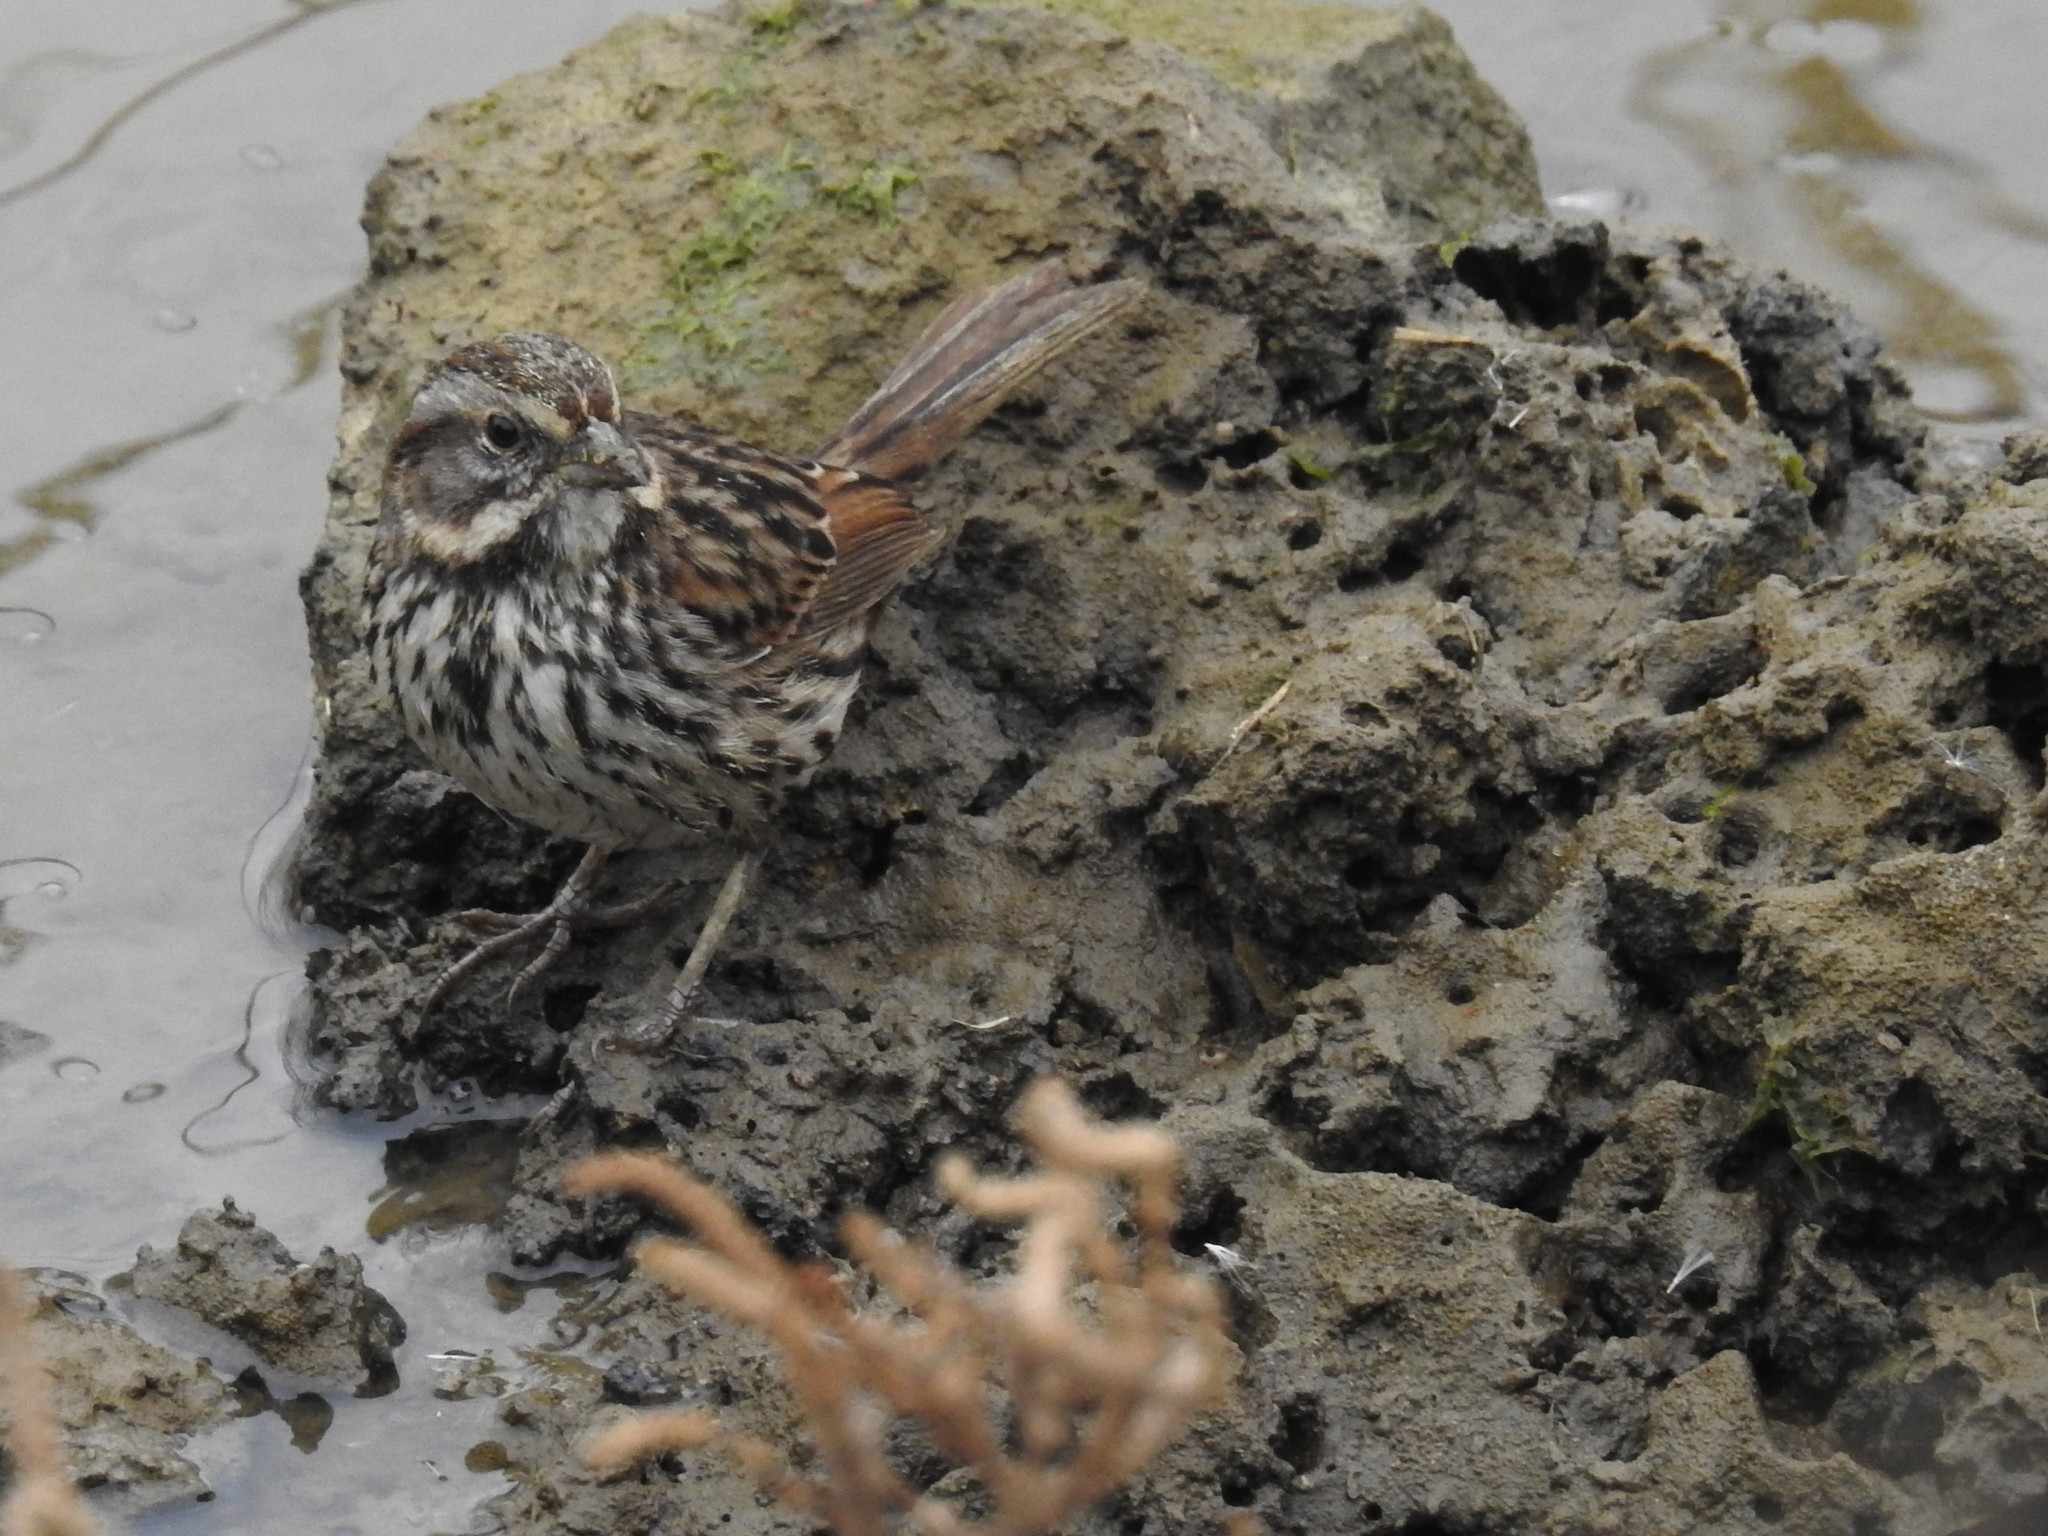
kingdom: Animalia
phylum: Chordata
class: Aves
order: Passeriformes
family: Passerellidae
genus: Melospiza
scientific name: Melospiza melodia
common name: Song sparrow
